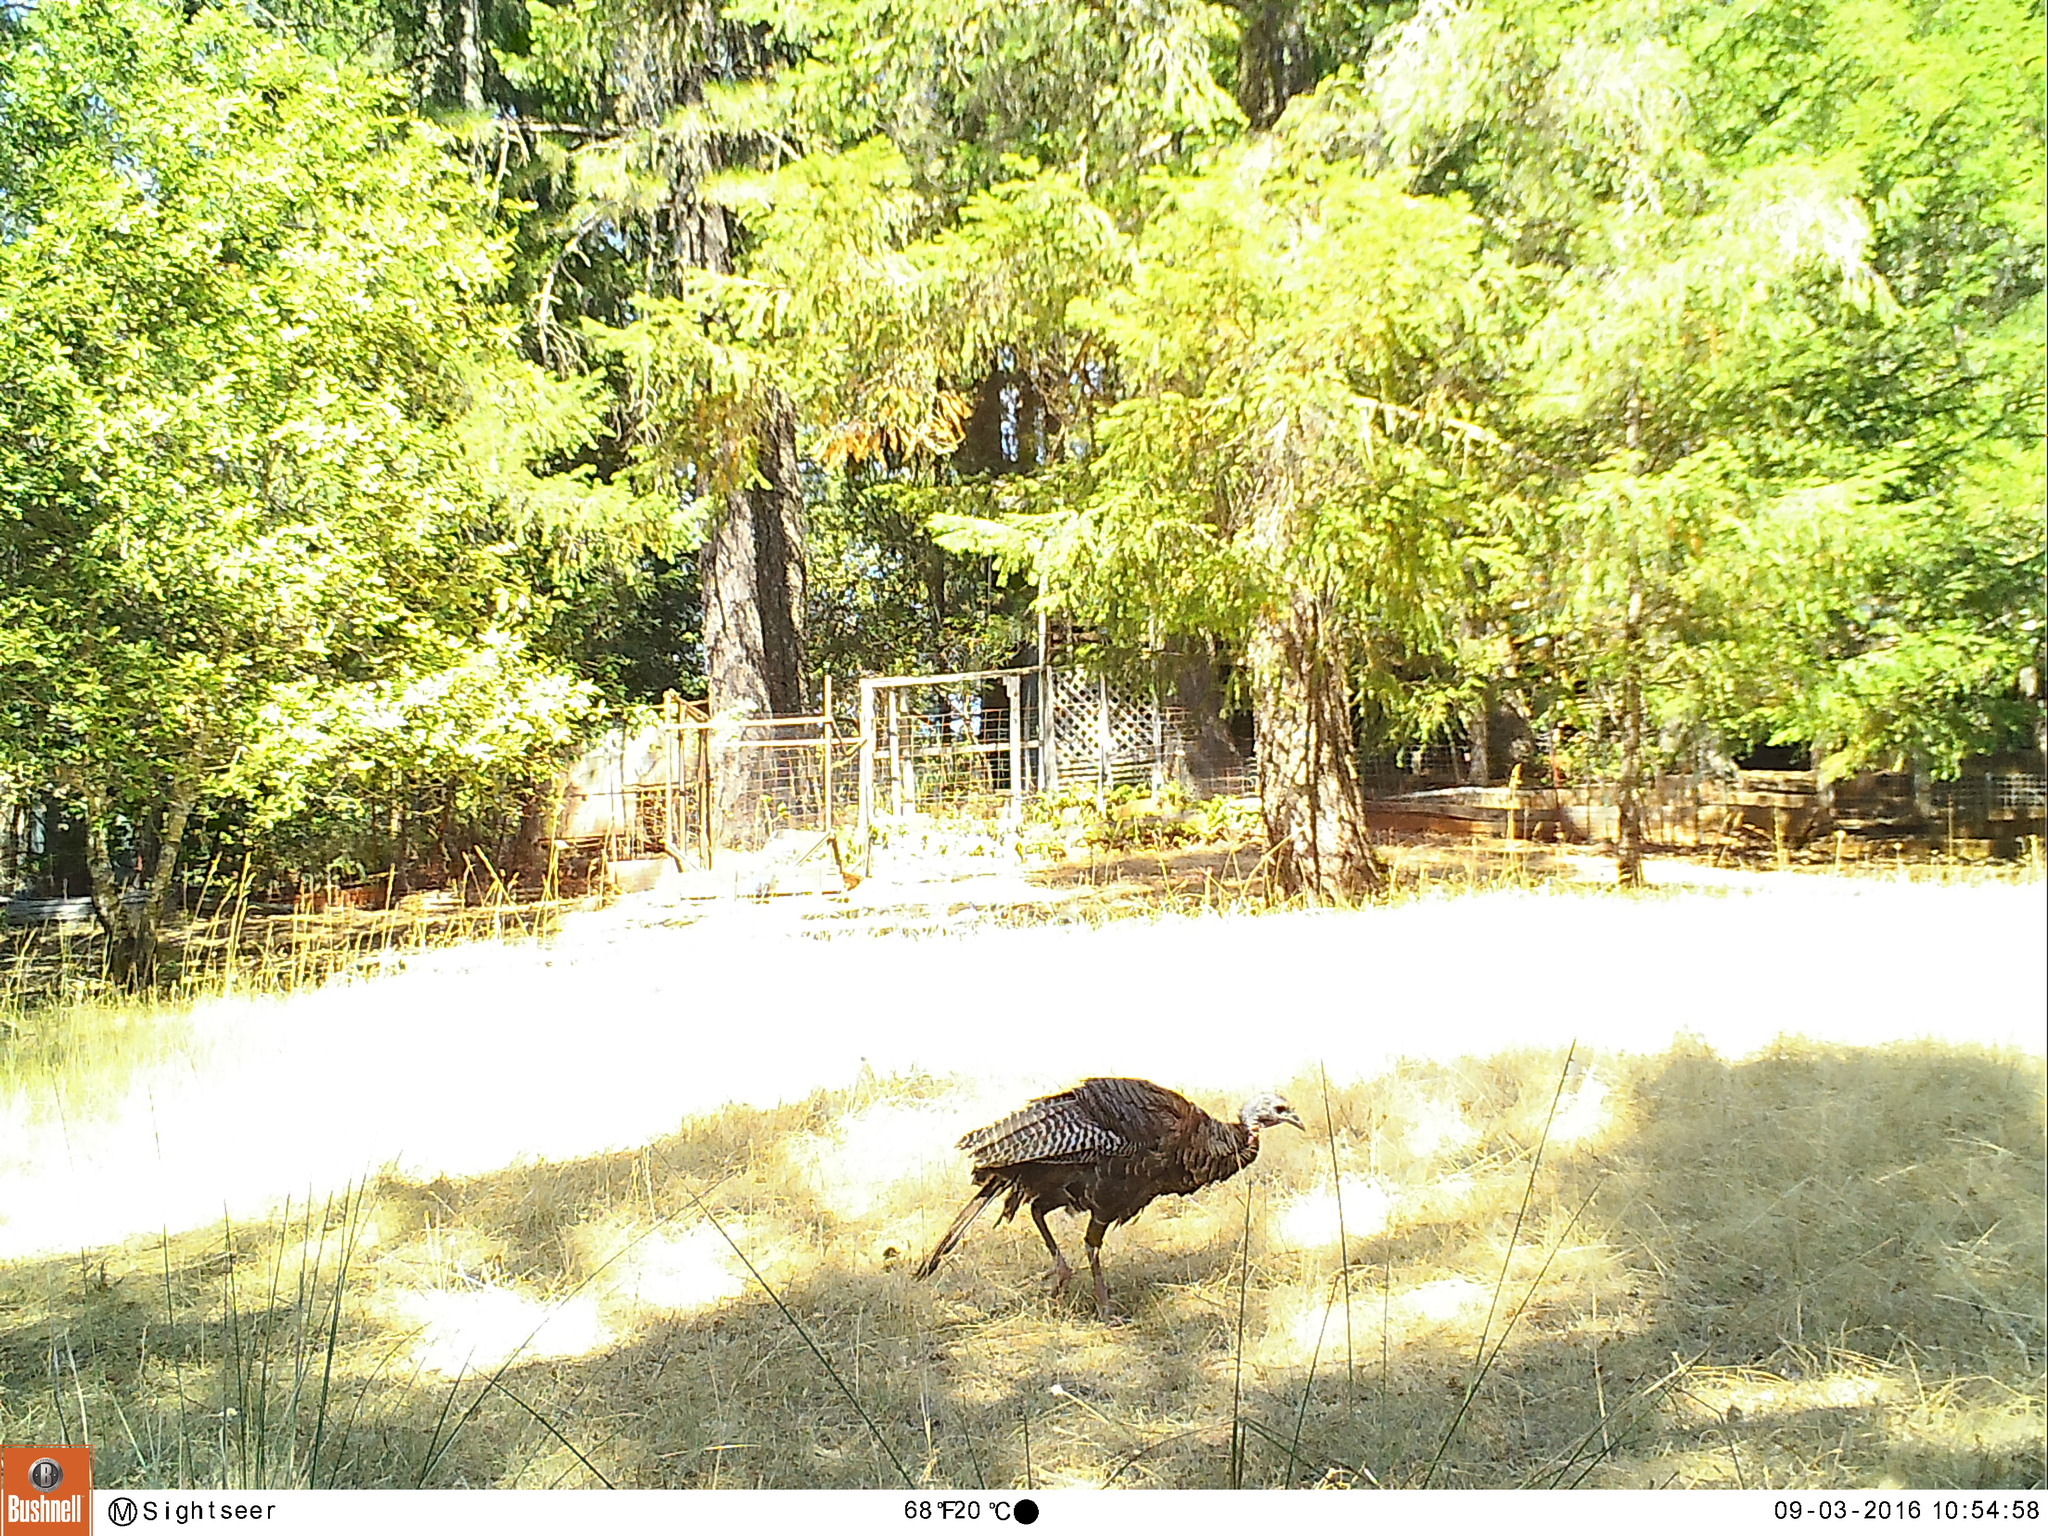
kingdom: Animalia
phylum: Chordata
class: Aves
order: Galliformes
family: Phasianidae
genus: Meleagris
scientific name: Meleagris gallopavo
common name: Wild turkey
